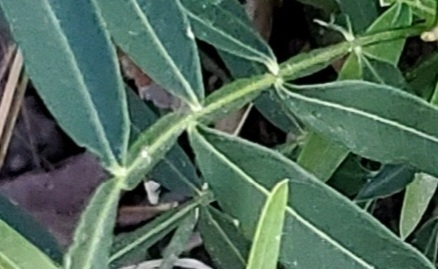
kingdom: Plantae
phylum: Tracheophyta
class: Magnoliopsida
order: Sapindales
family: Sapindaceae
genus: Sapindus
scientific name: Sapindus drummondii
